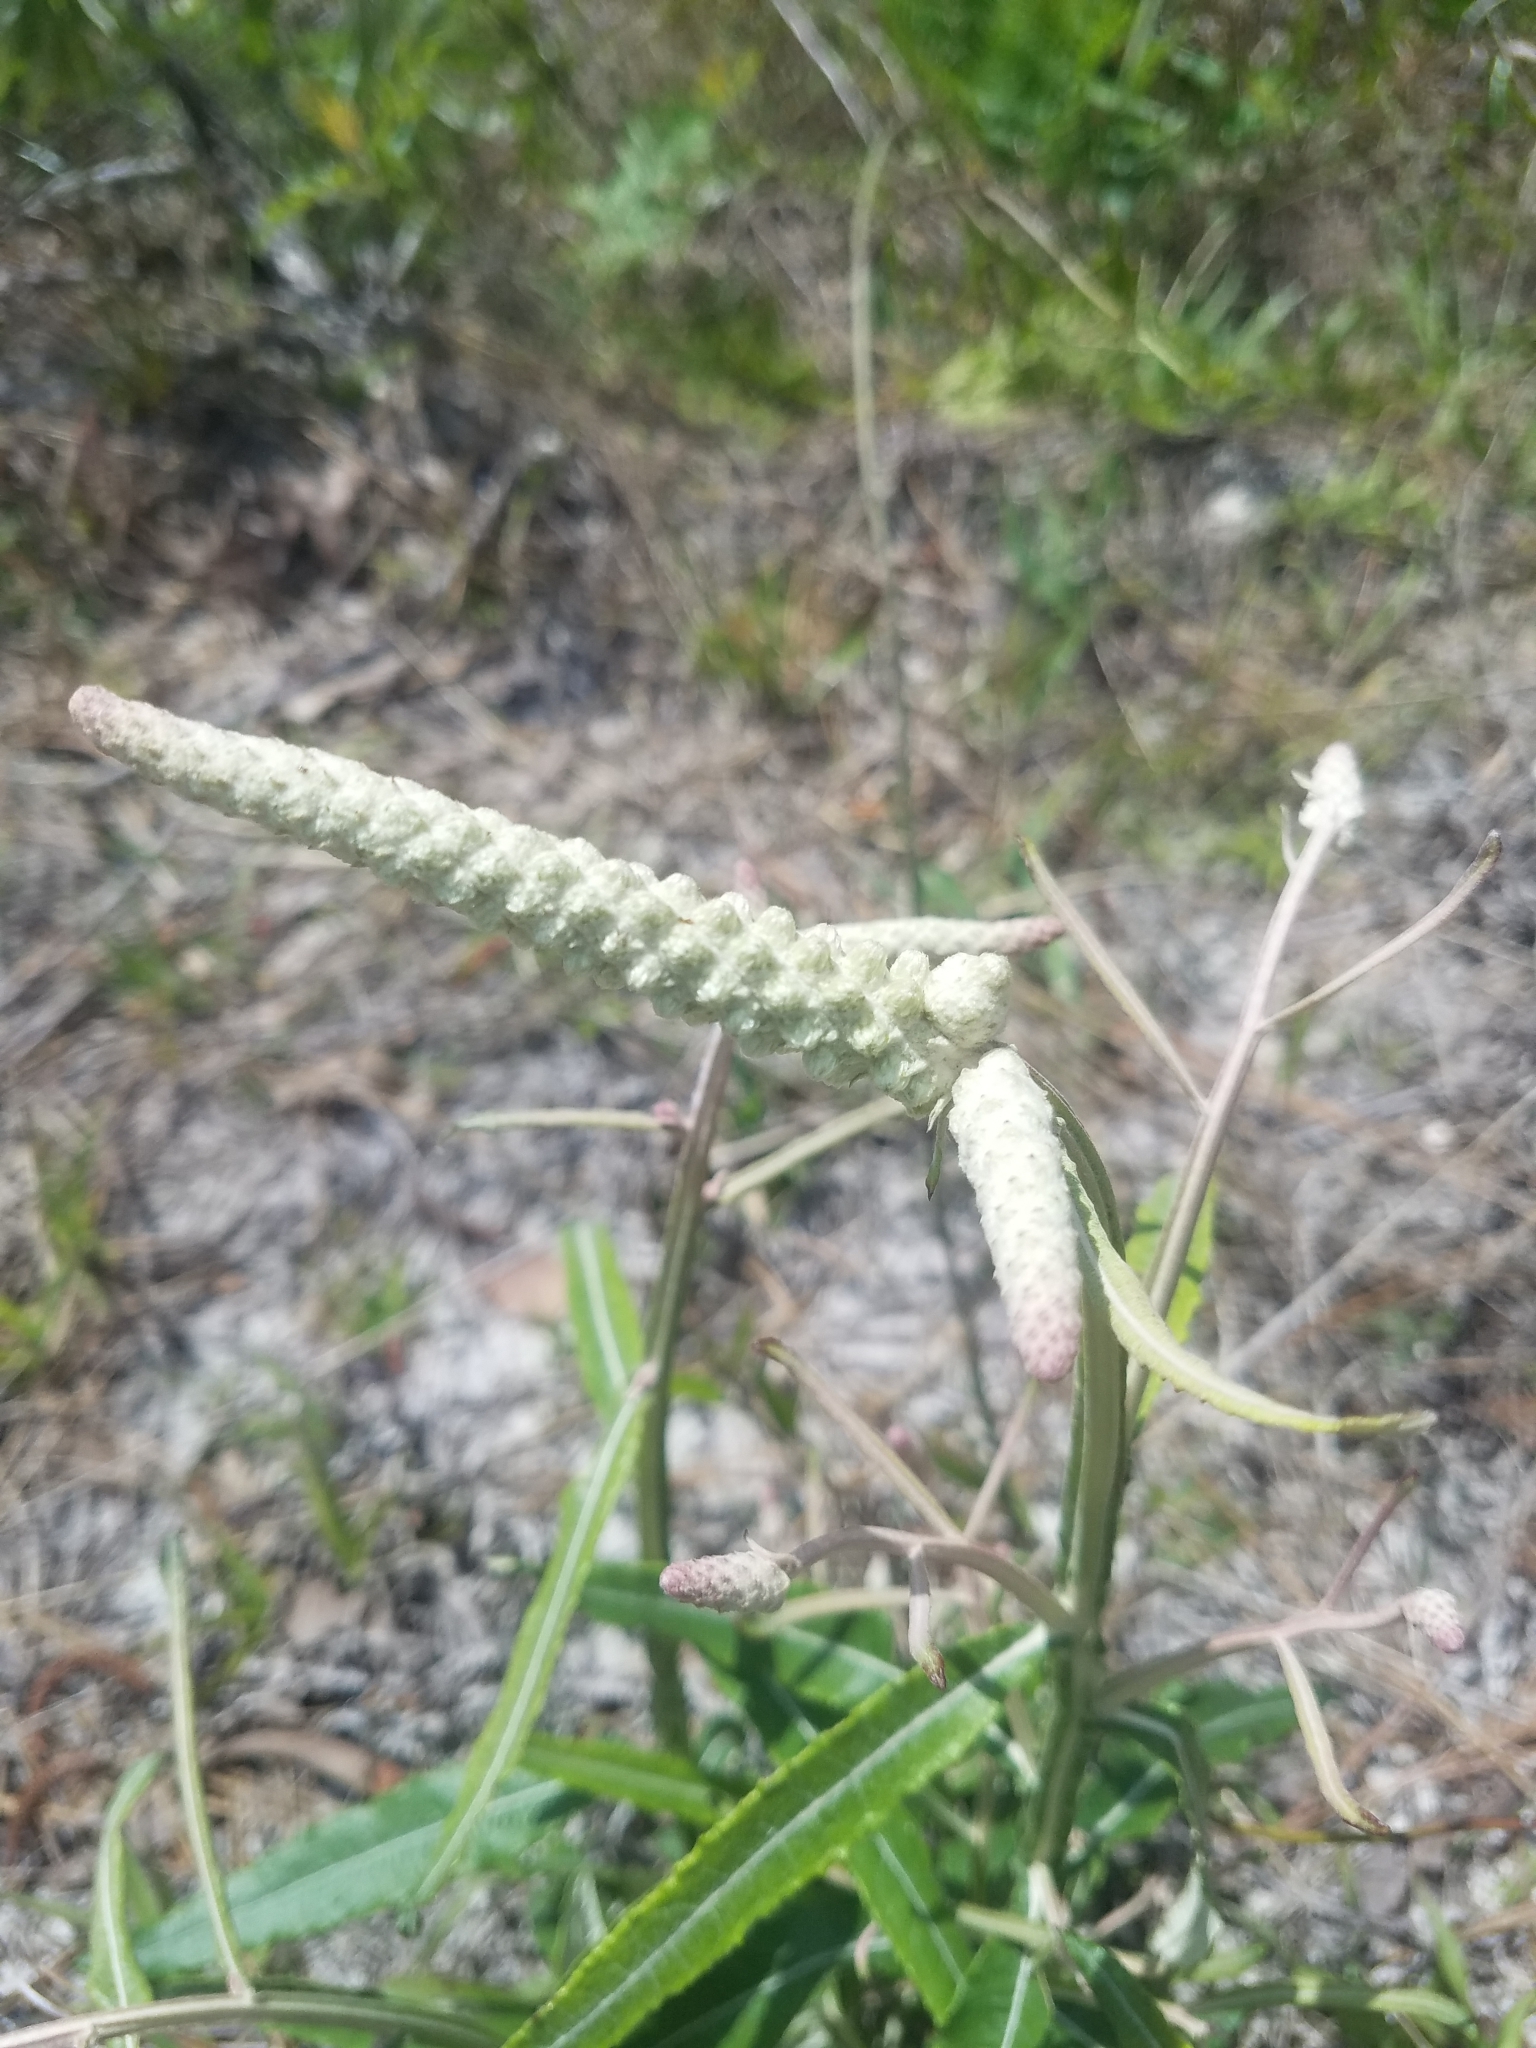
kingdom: Plantae
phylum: Tracheophyta
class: Magnoliopsida
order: Asterales
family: Asteraceae
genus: Pterocaulon
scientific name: Pterocaulon pycnostachyum
